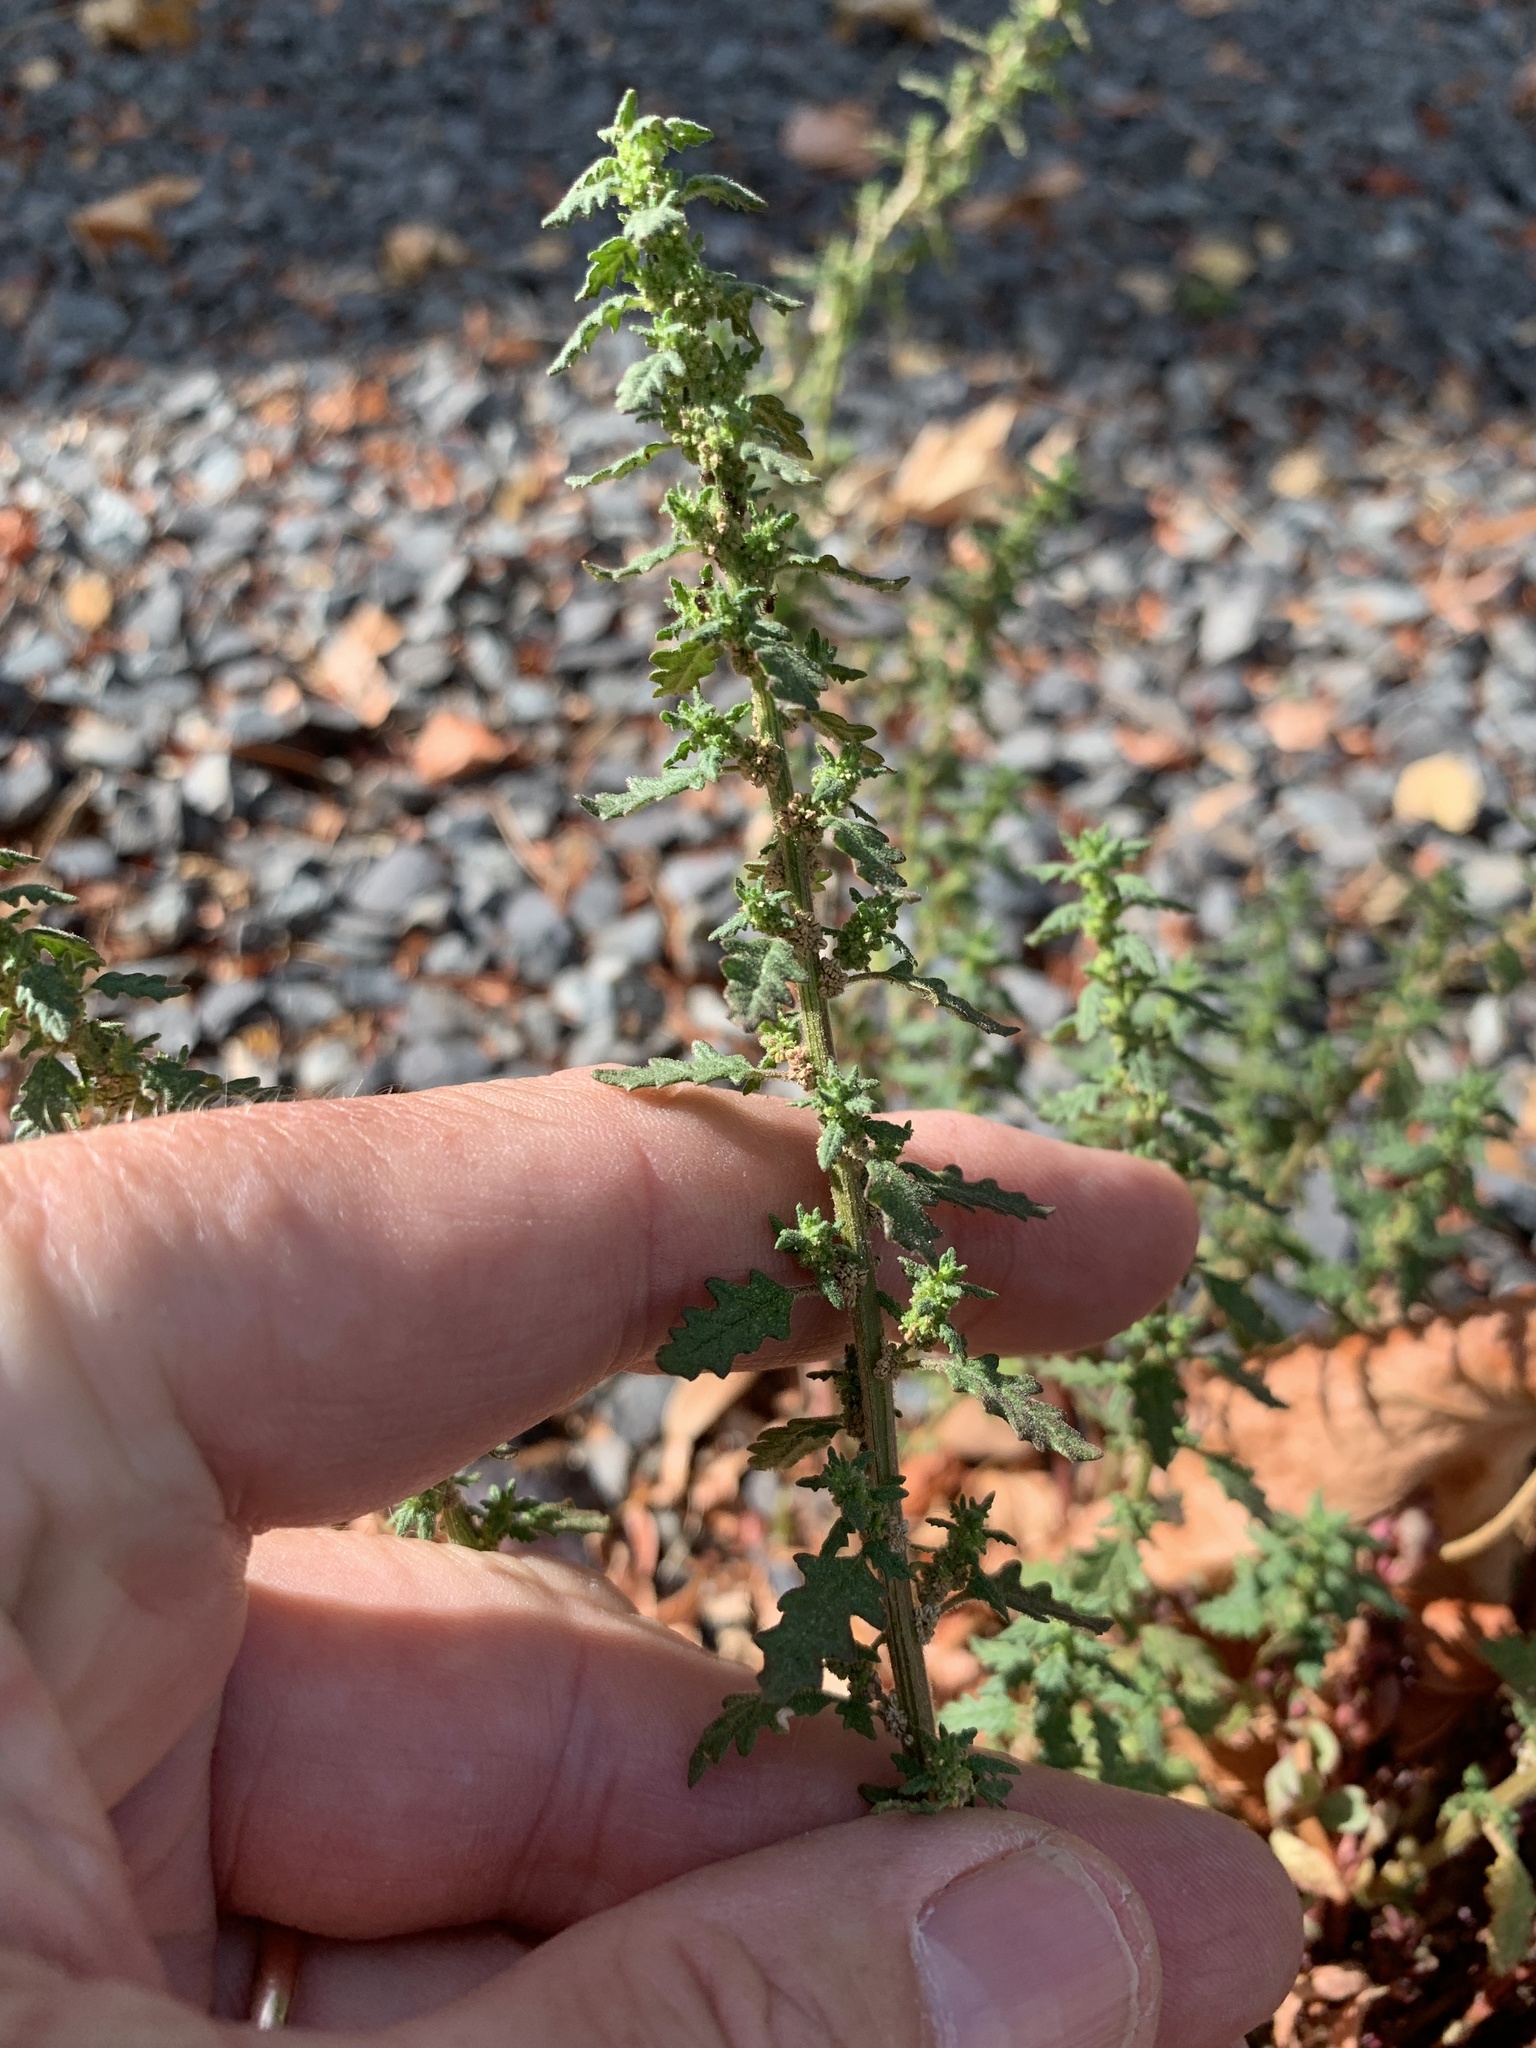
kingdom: Plantae
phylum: Tracheophyta
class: Magnoliopsida
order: Caryophyllales
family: Amaranthaceae
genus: Dysphania
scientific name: Dysphania pumilio
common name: Clammy goosefoot
